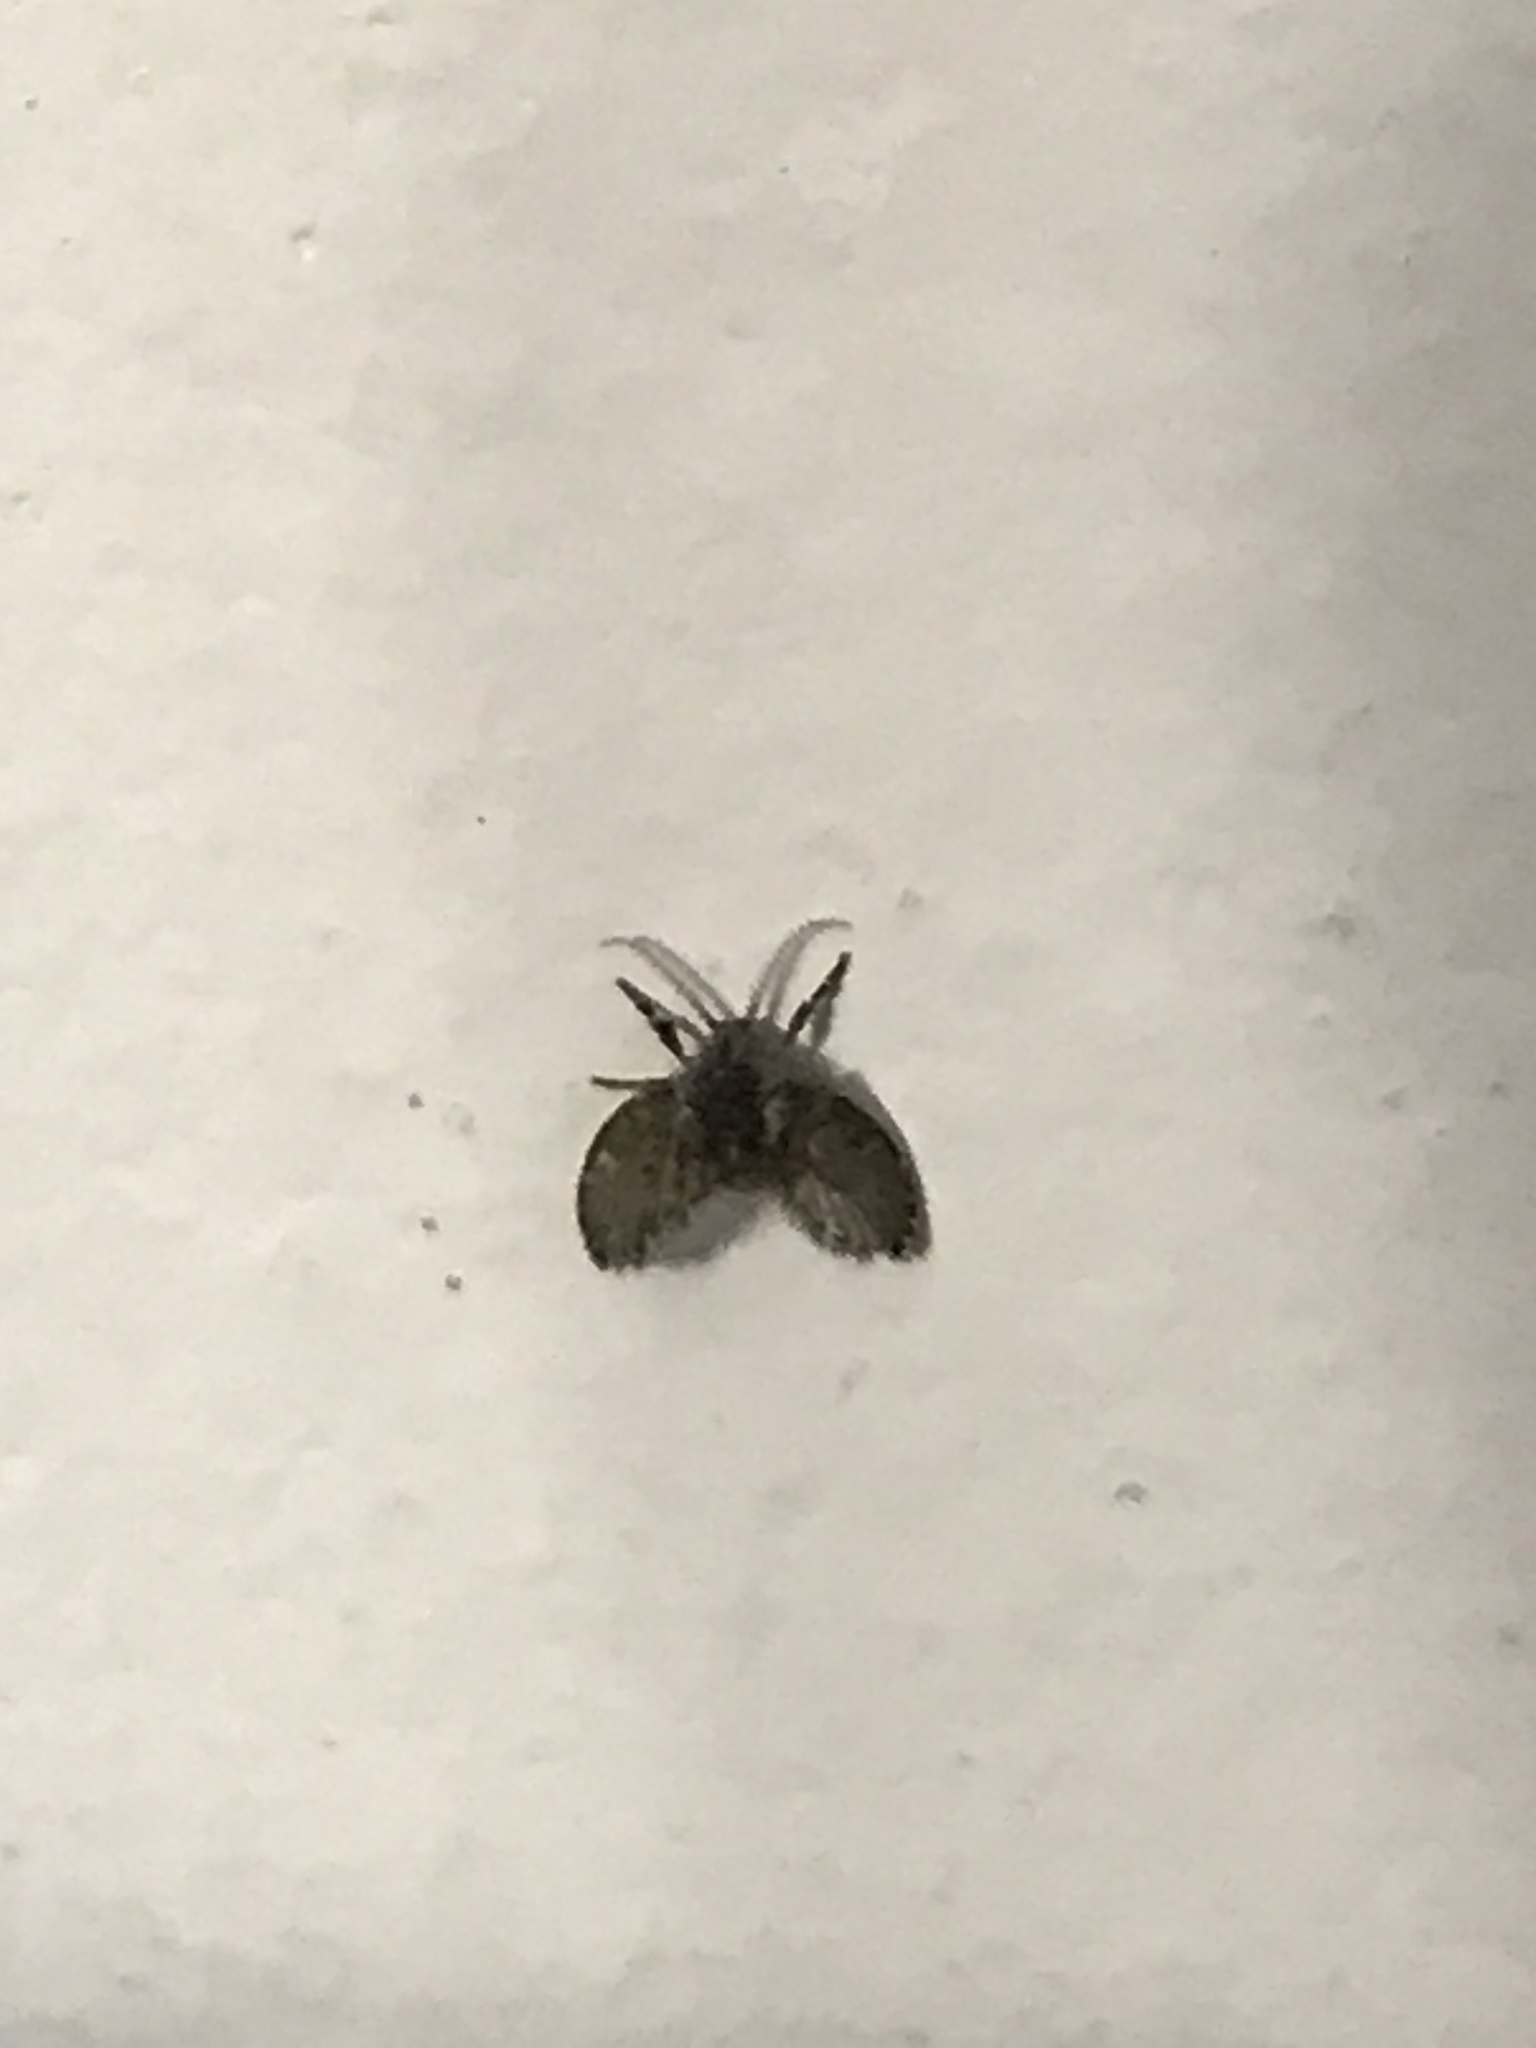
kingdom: Animalia
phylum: Arthropoda
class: Insecta
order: Diptera
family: Psychodidae
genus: Clogmia
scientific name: Clogmia albipunctatus
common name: White-spotted moth fly
